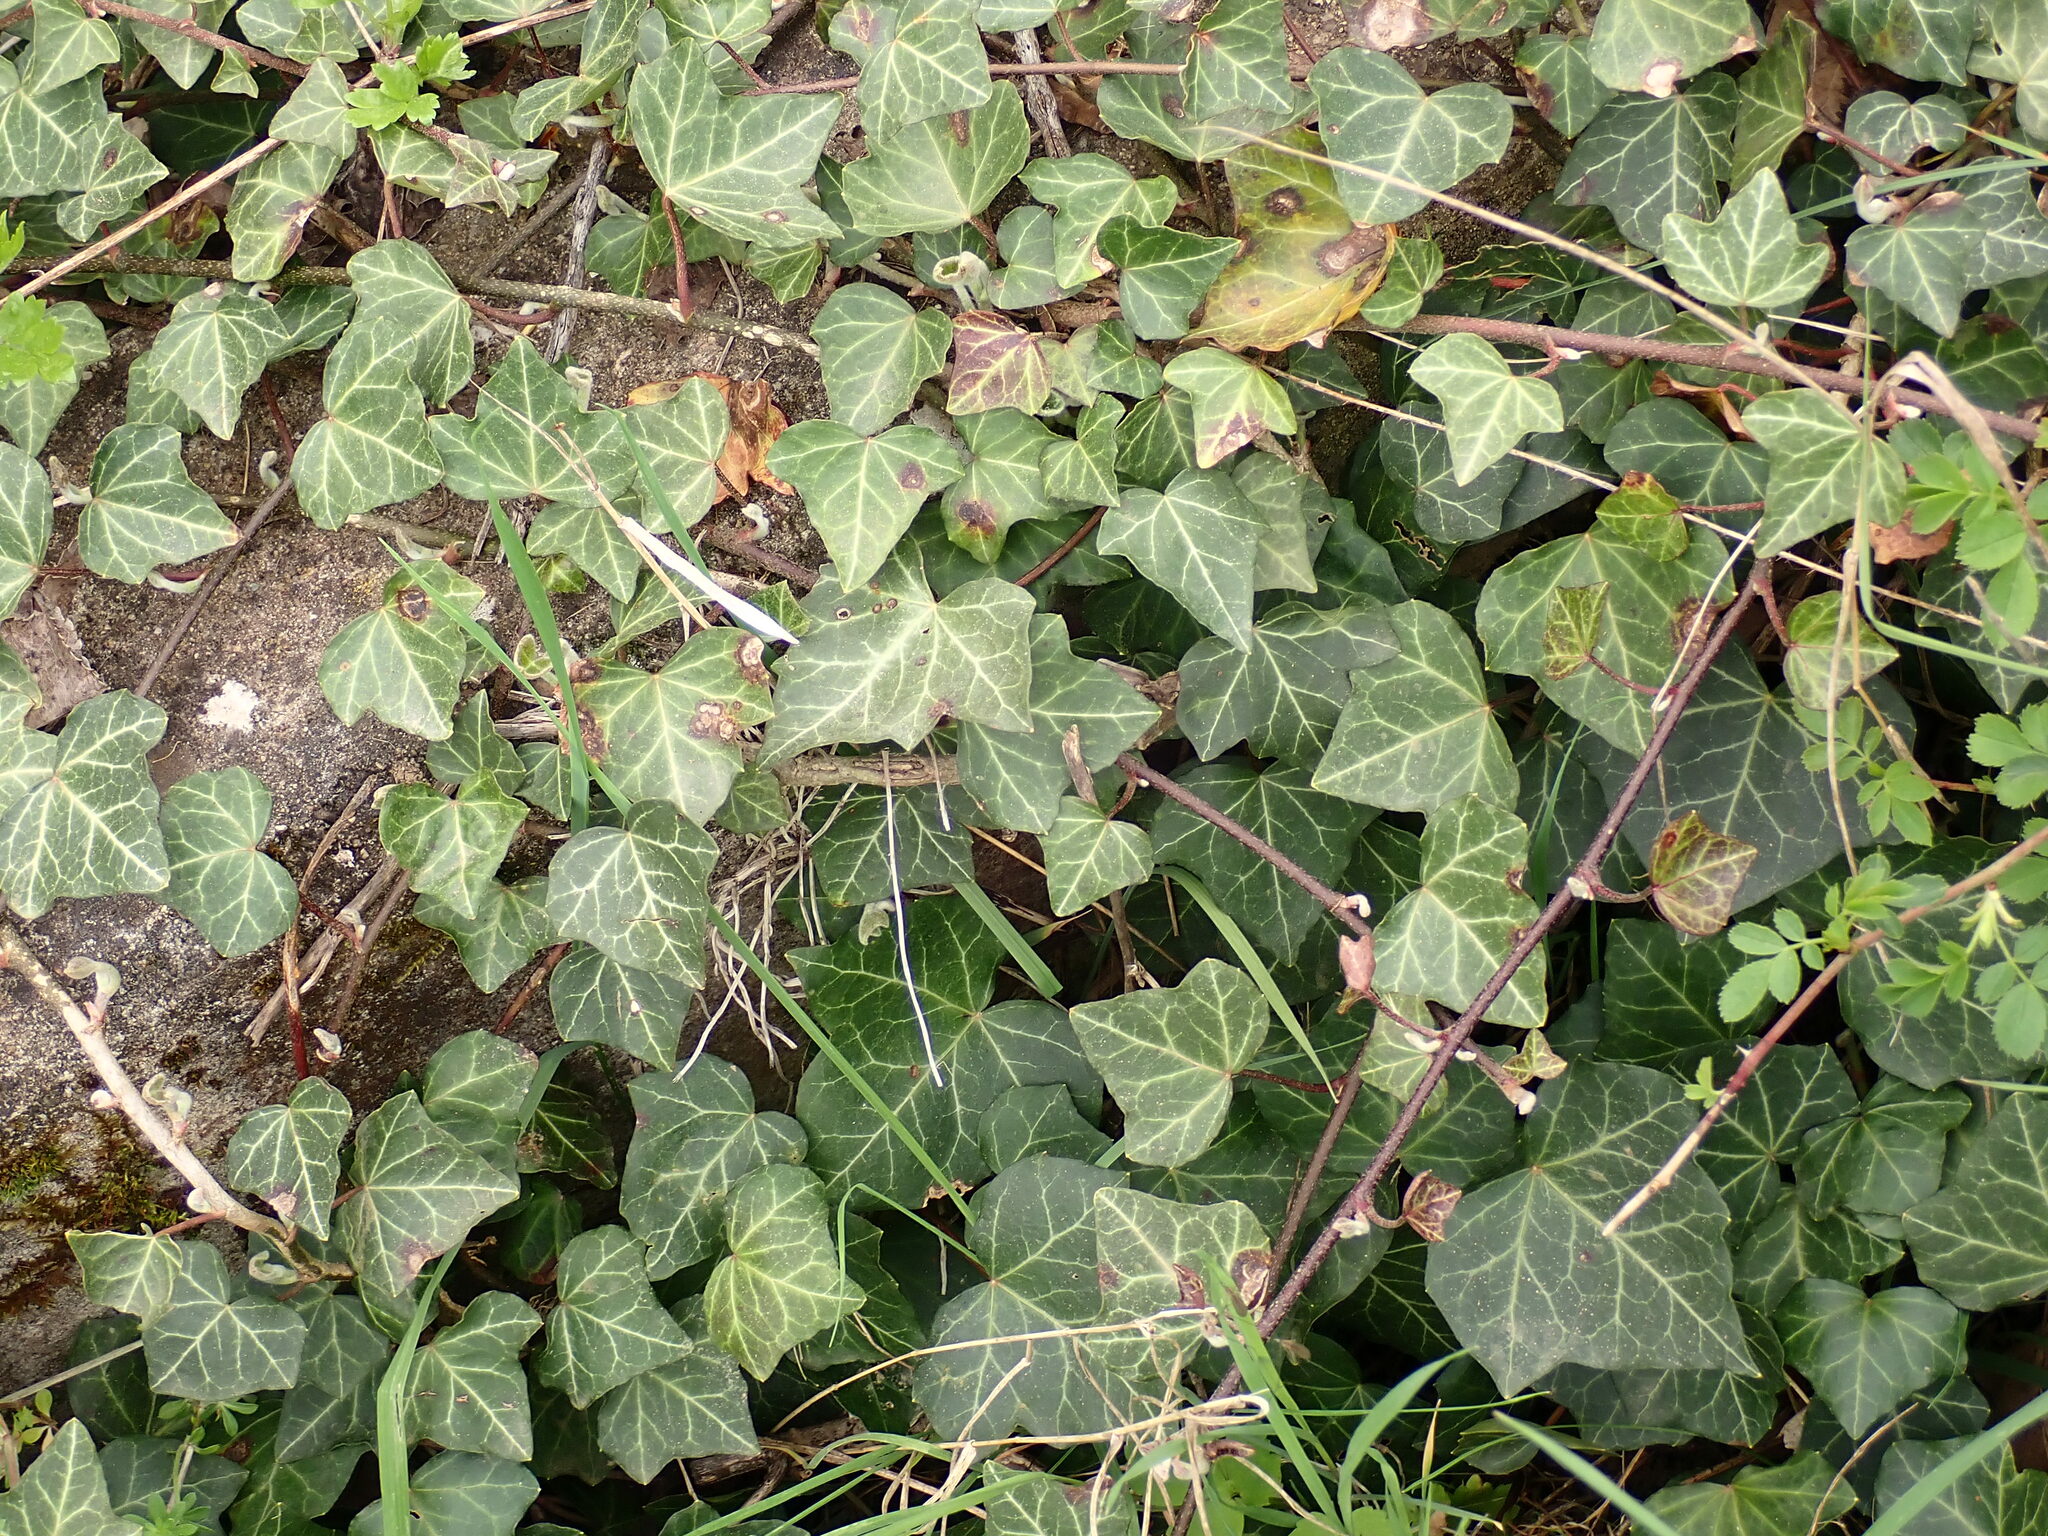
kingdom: Plantae
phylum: Tracheophyta
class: Magnoliopsida
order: Apiales
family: Araliaceae
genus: Hedera
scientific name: Hedera helix
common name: Ivy
